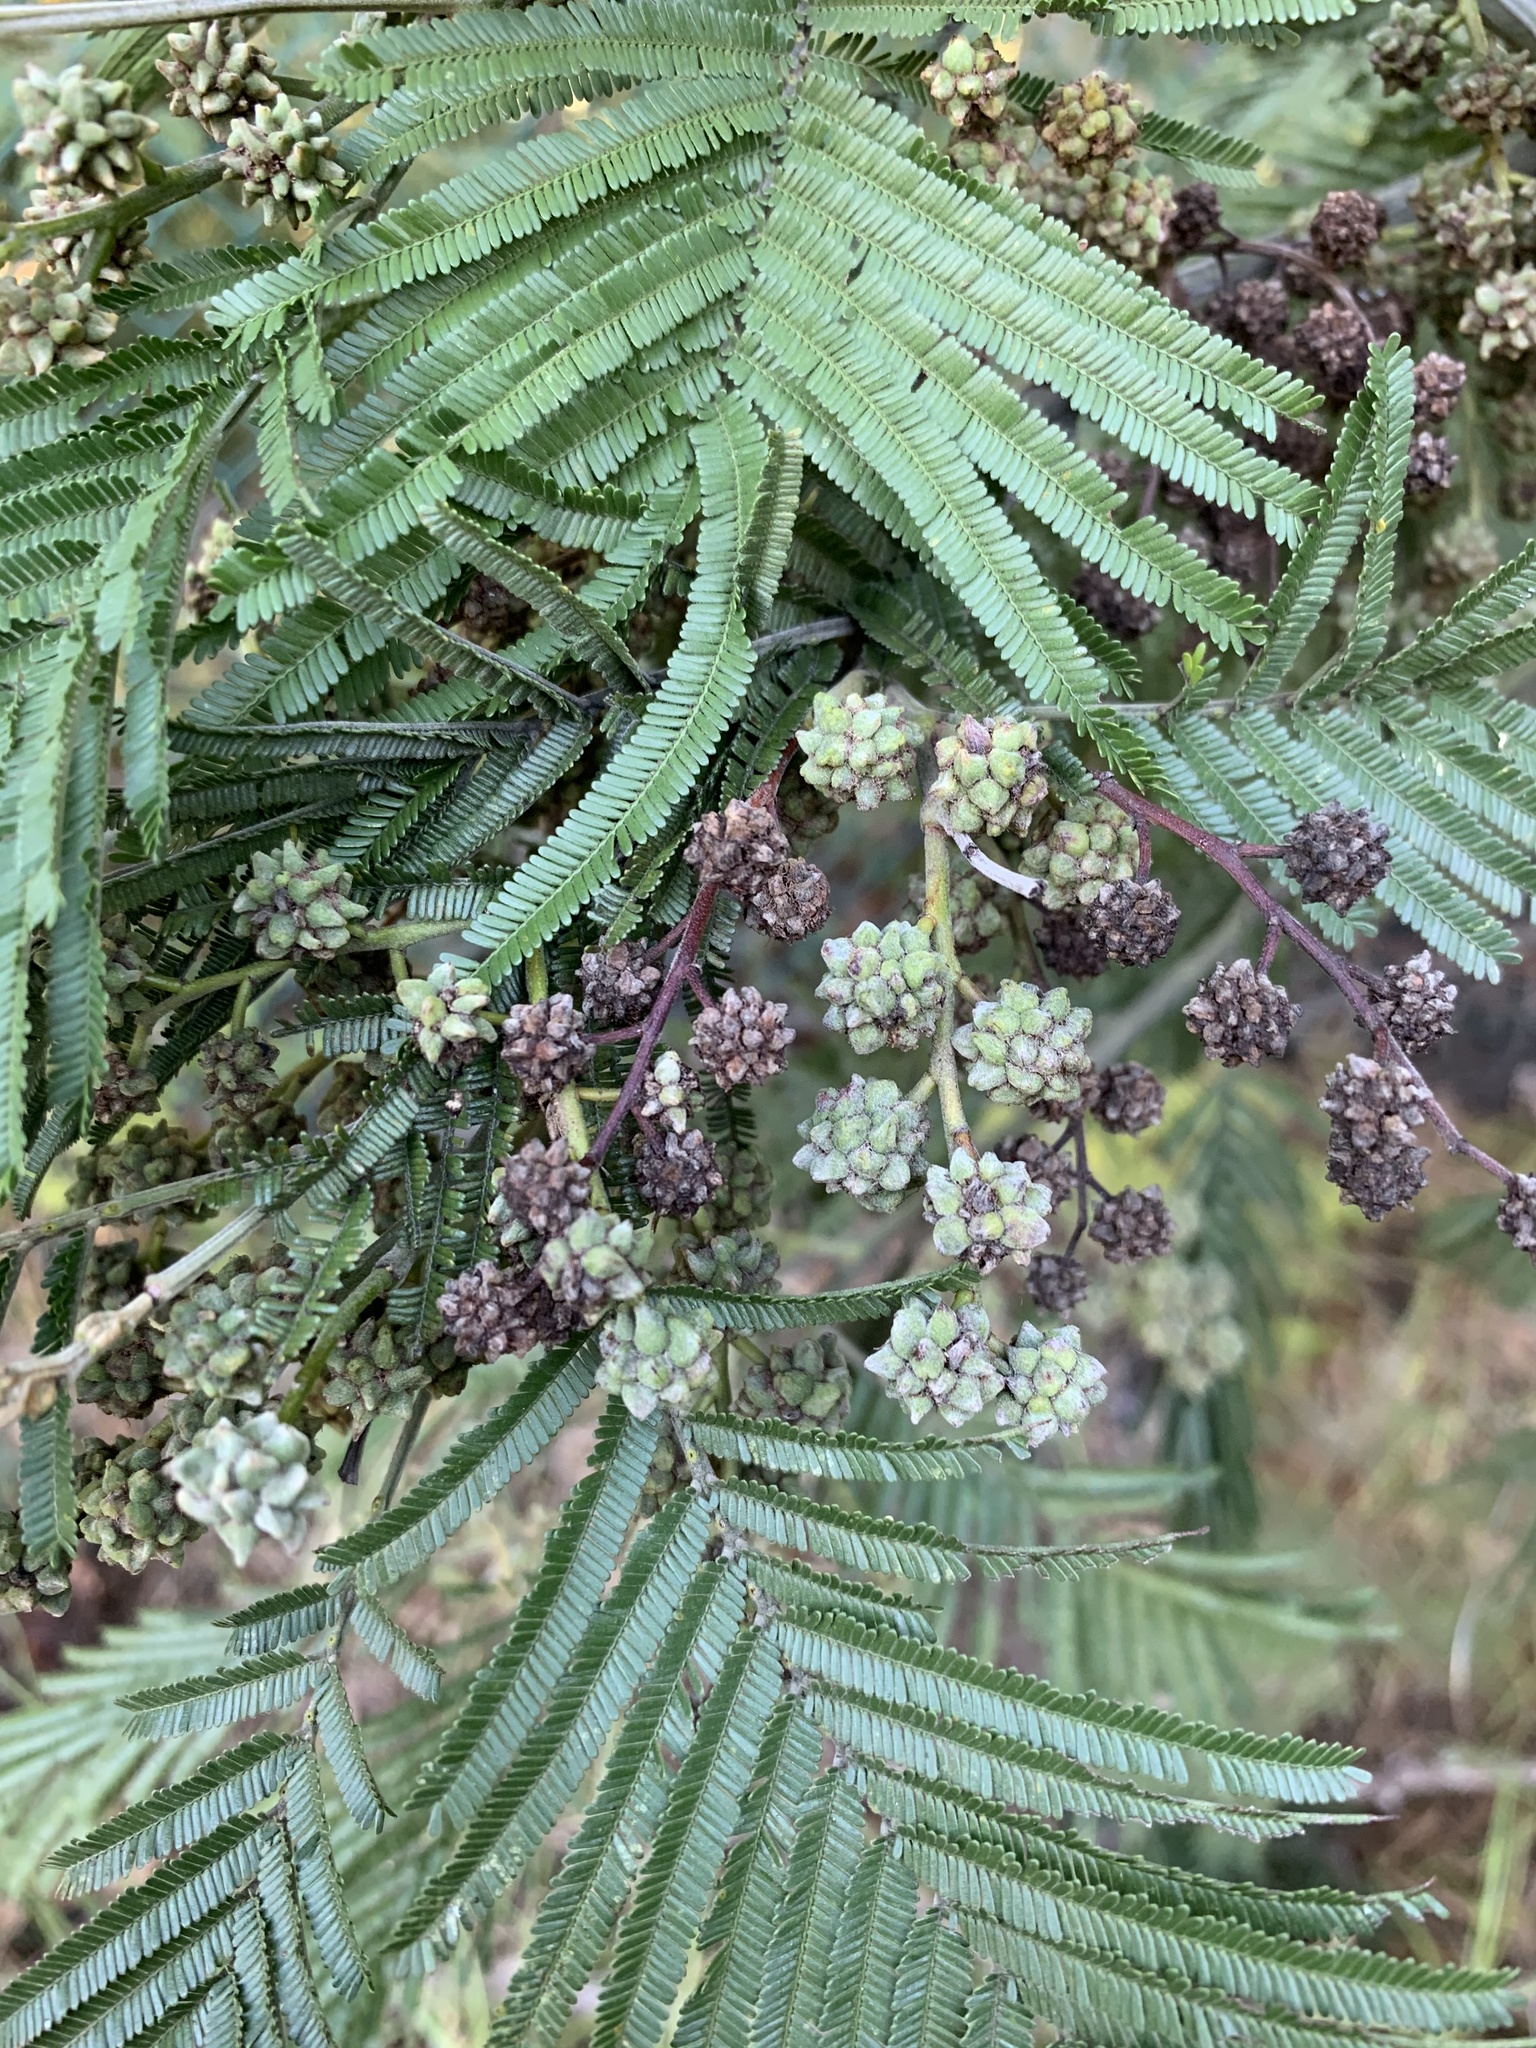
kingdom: Plantae
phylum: Tracheophyta
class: Magnoliopsida
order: Fabales
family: Fabaceae
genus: Acacia
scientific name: Acacia mearnsii
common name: Black wattle
